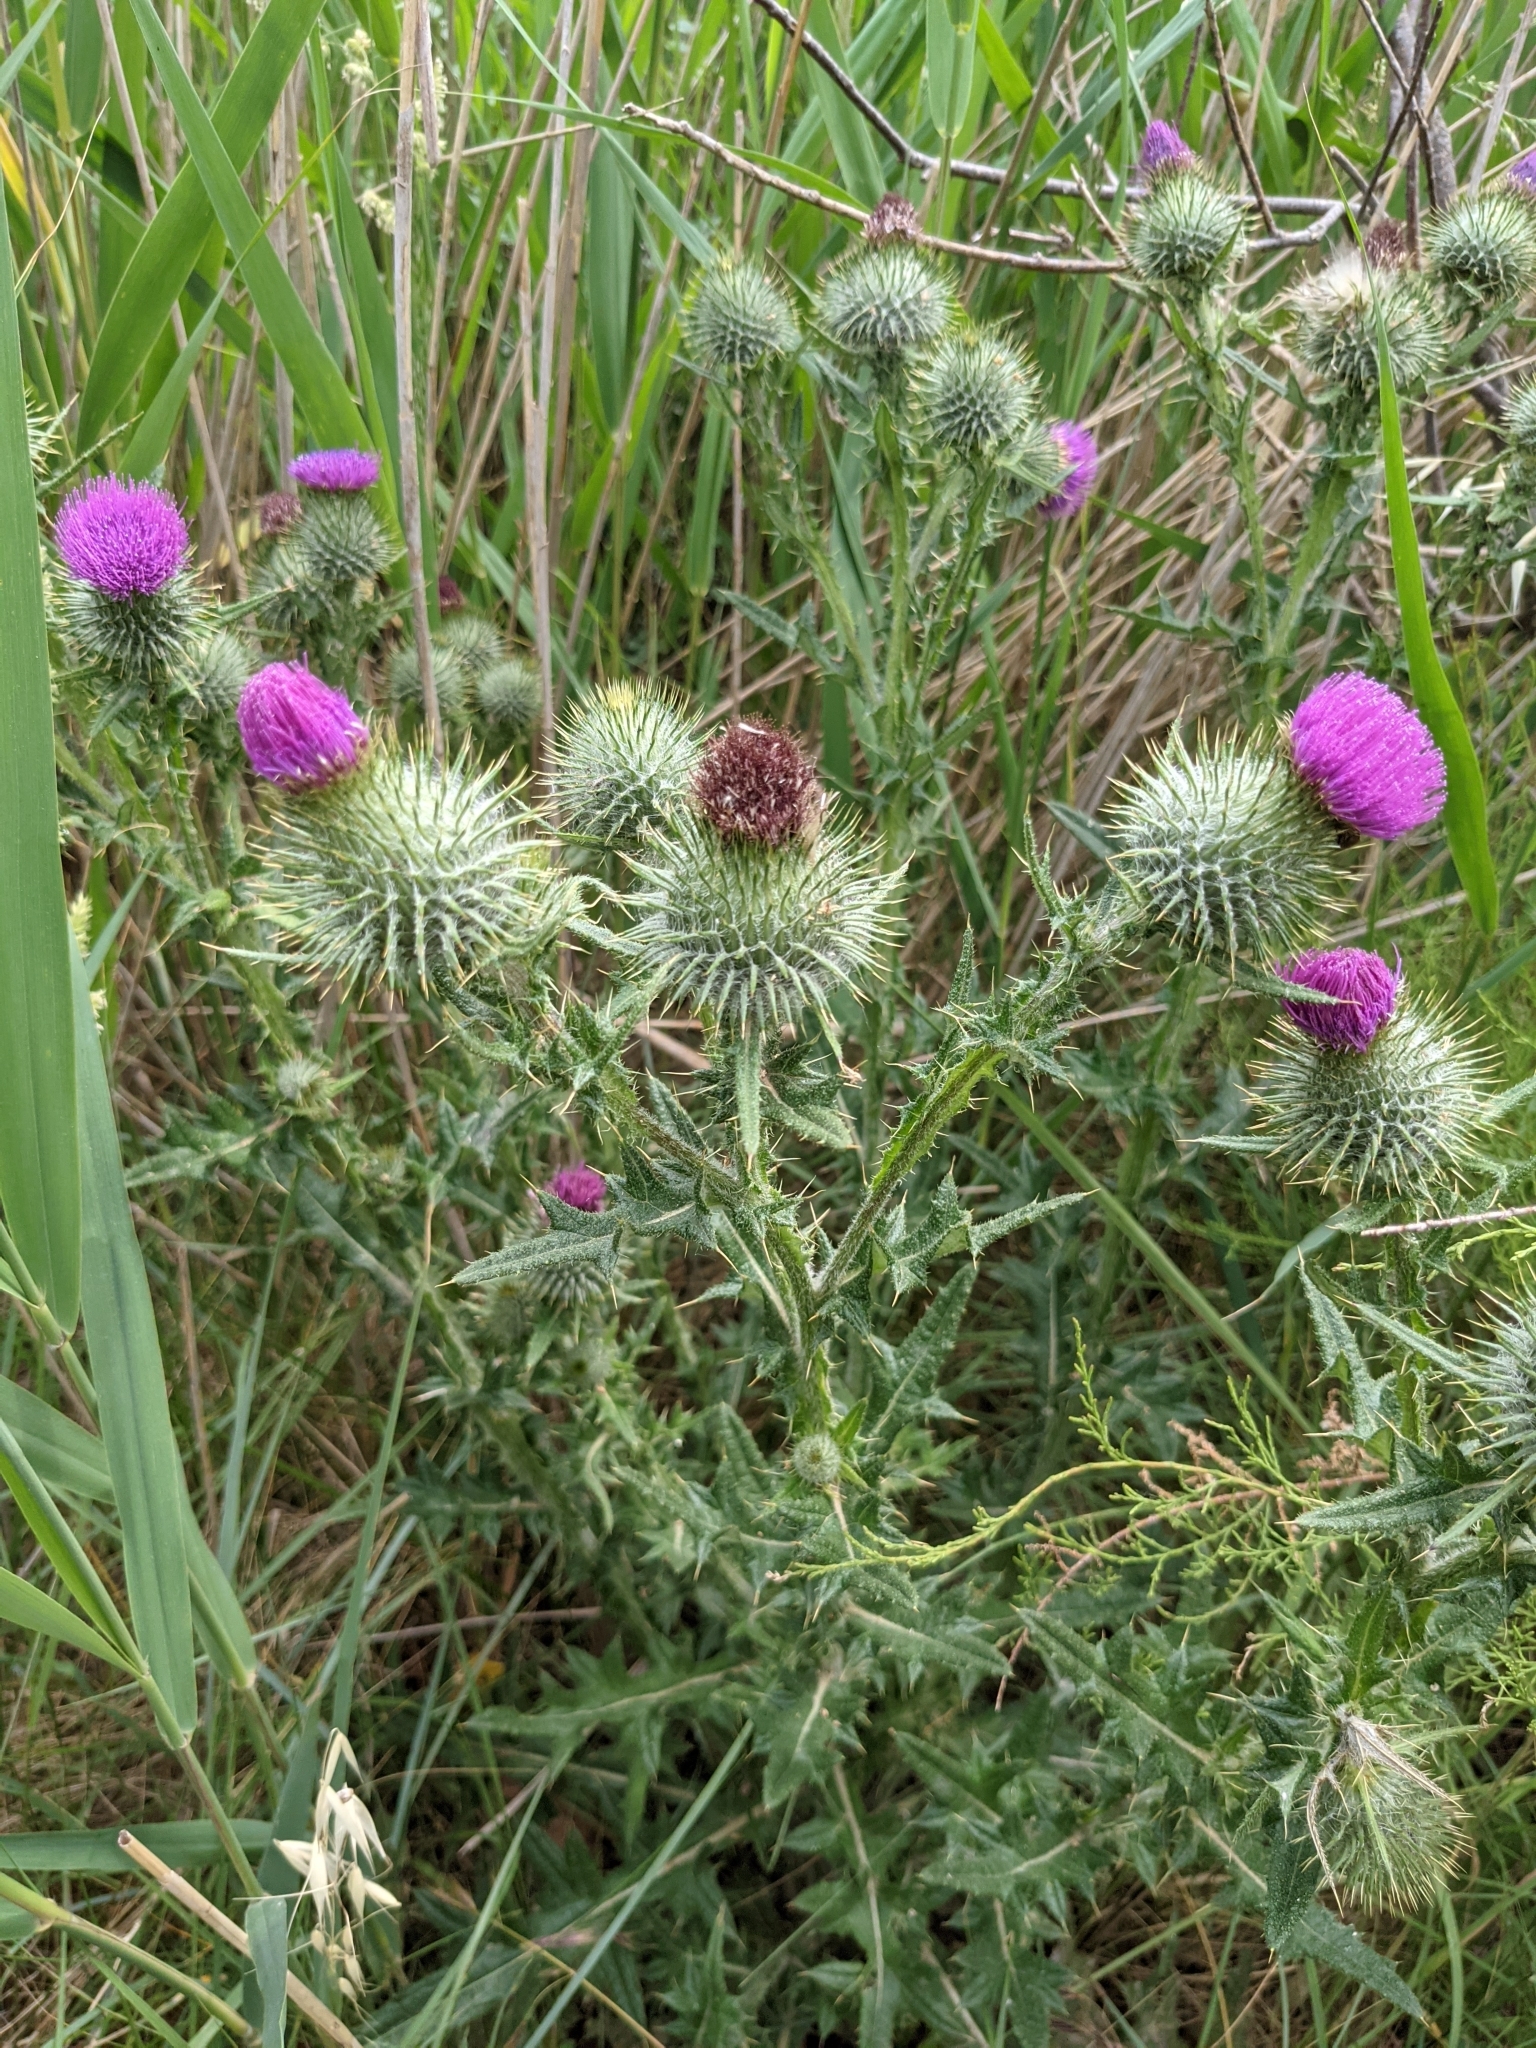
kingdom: Plantae
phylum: Tracheophyta
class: Magnoliopsida
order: Asterales
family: Asteraceae
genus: Cirsium
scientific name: Cirsium vulgare
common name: Bull thistle
